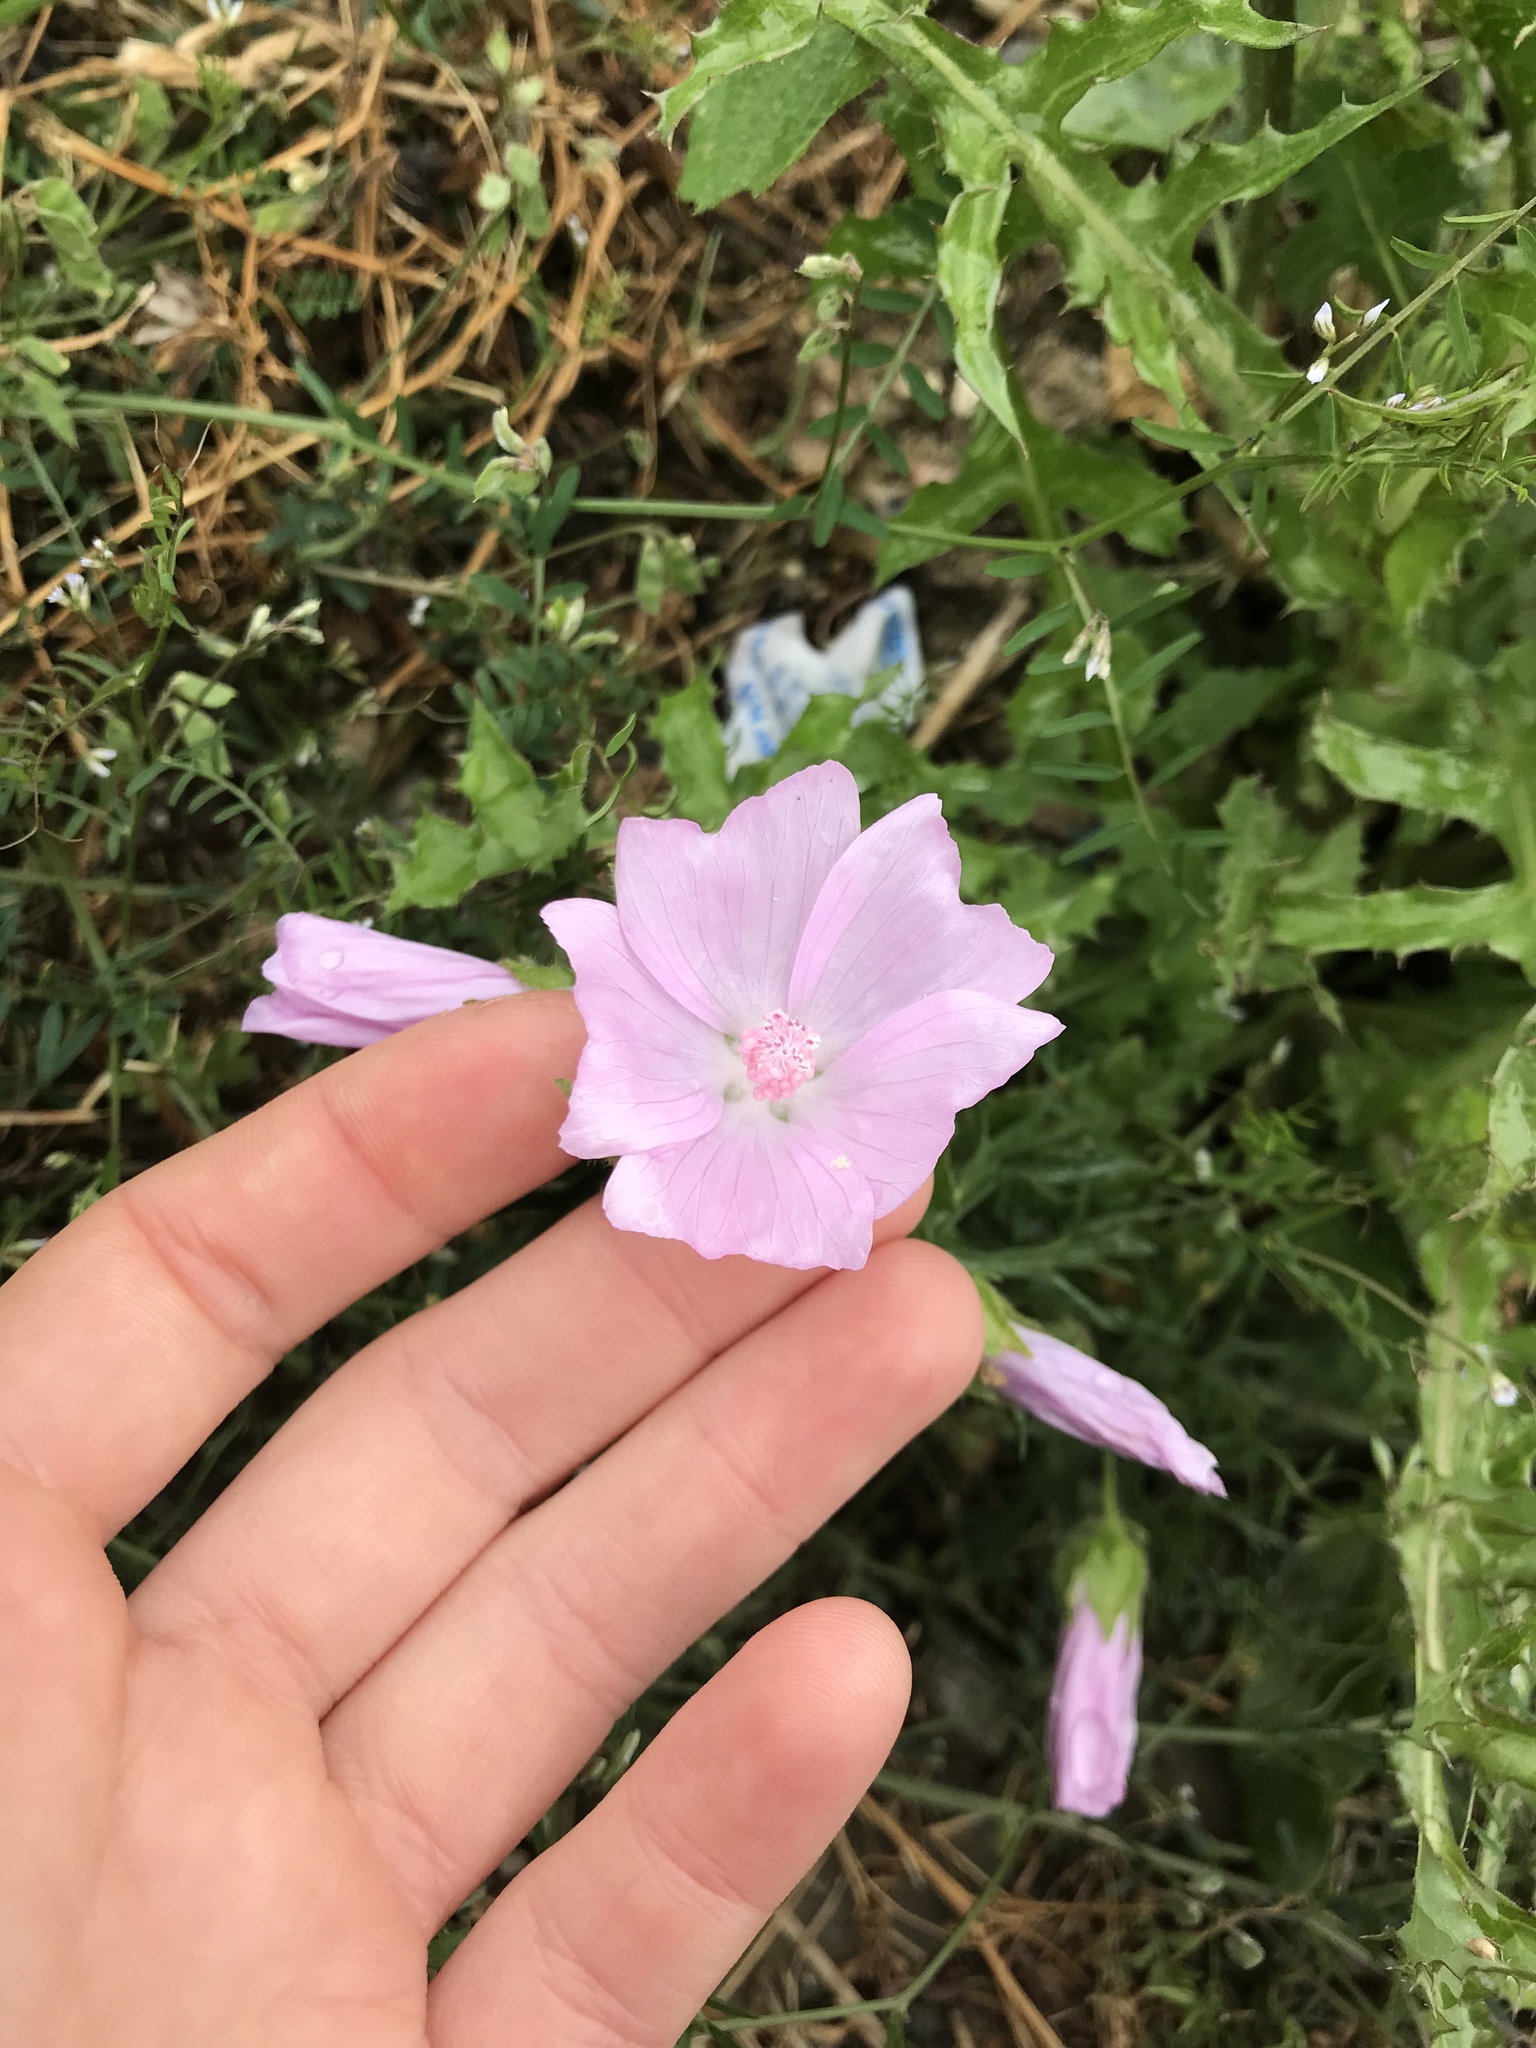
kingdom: Plantae
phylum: Tracheophyta
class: Magnoliopsida
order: Malvales
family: Malvaceae
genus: Malva
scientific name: Malva moschata
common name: Musk mallow
